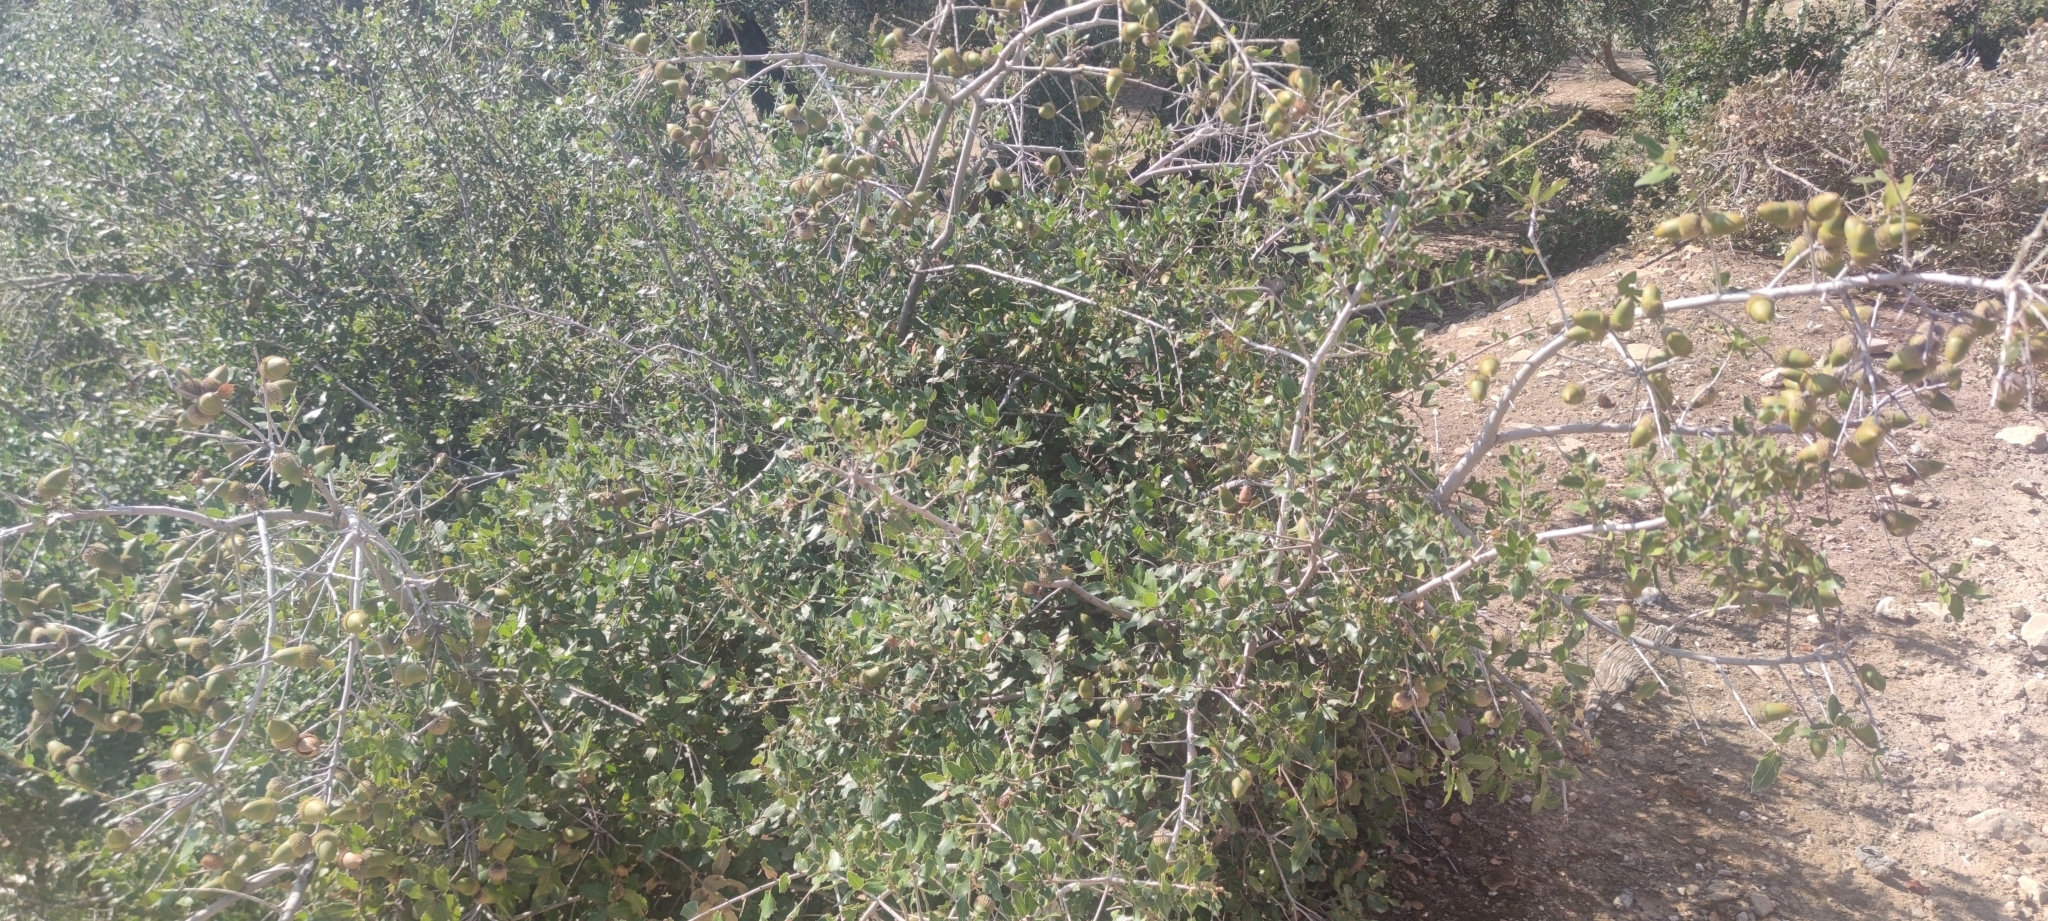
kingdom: Plantae
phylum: Tracheophyta
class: Magnoliopsida
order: Fagales
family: Fagaceae
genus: Quercus
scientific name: Quercus coccifera
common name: Kermes oak
